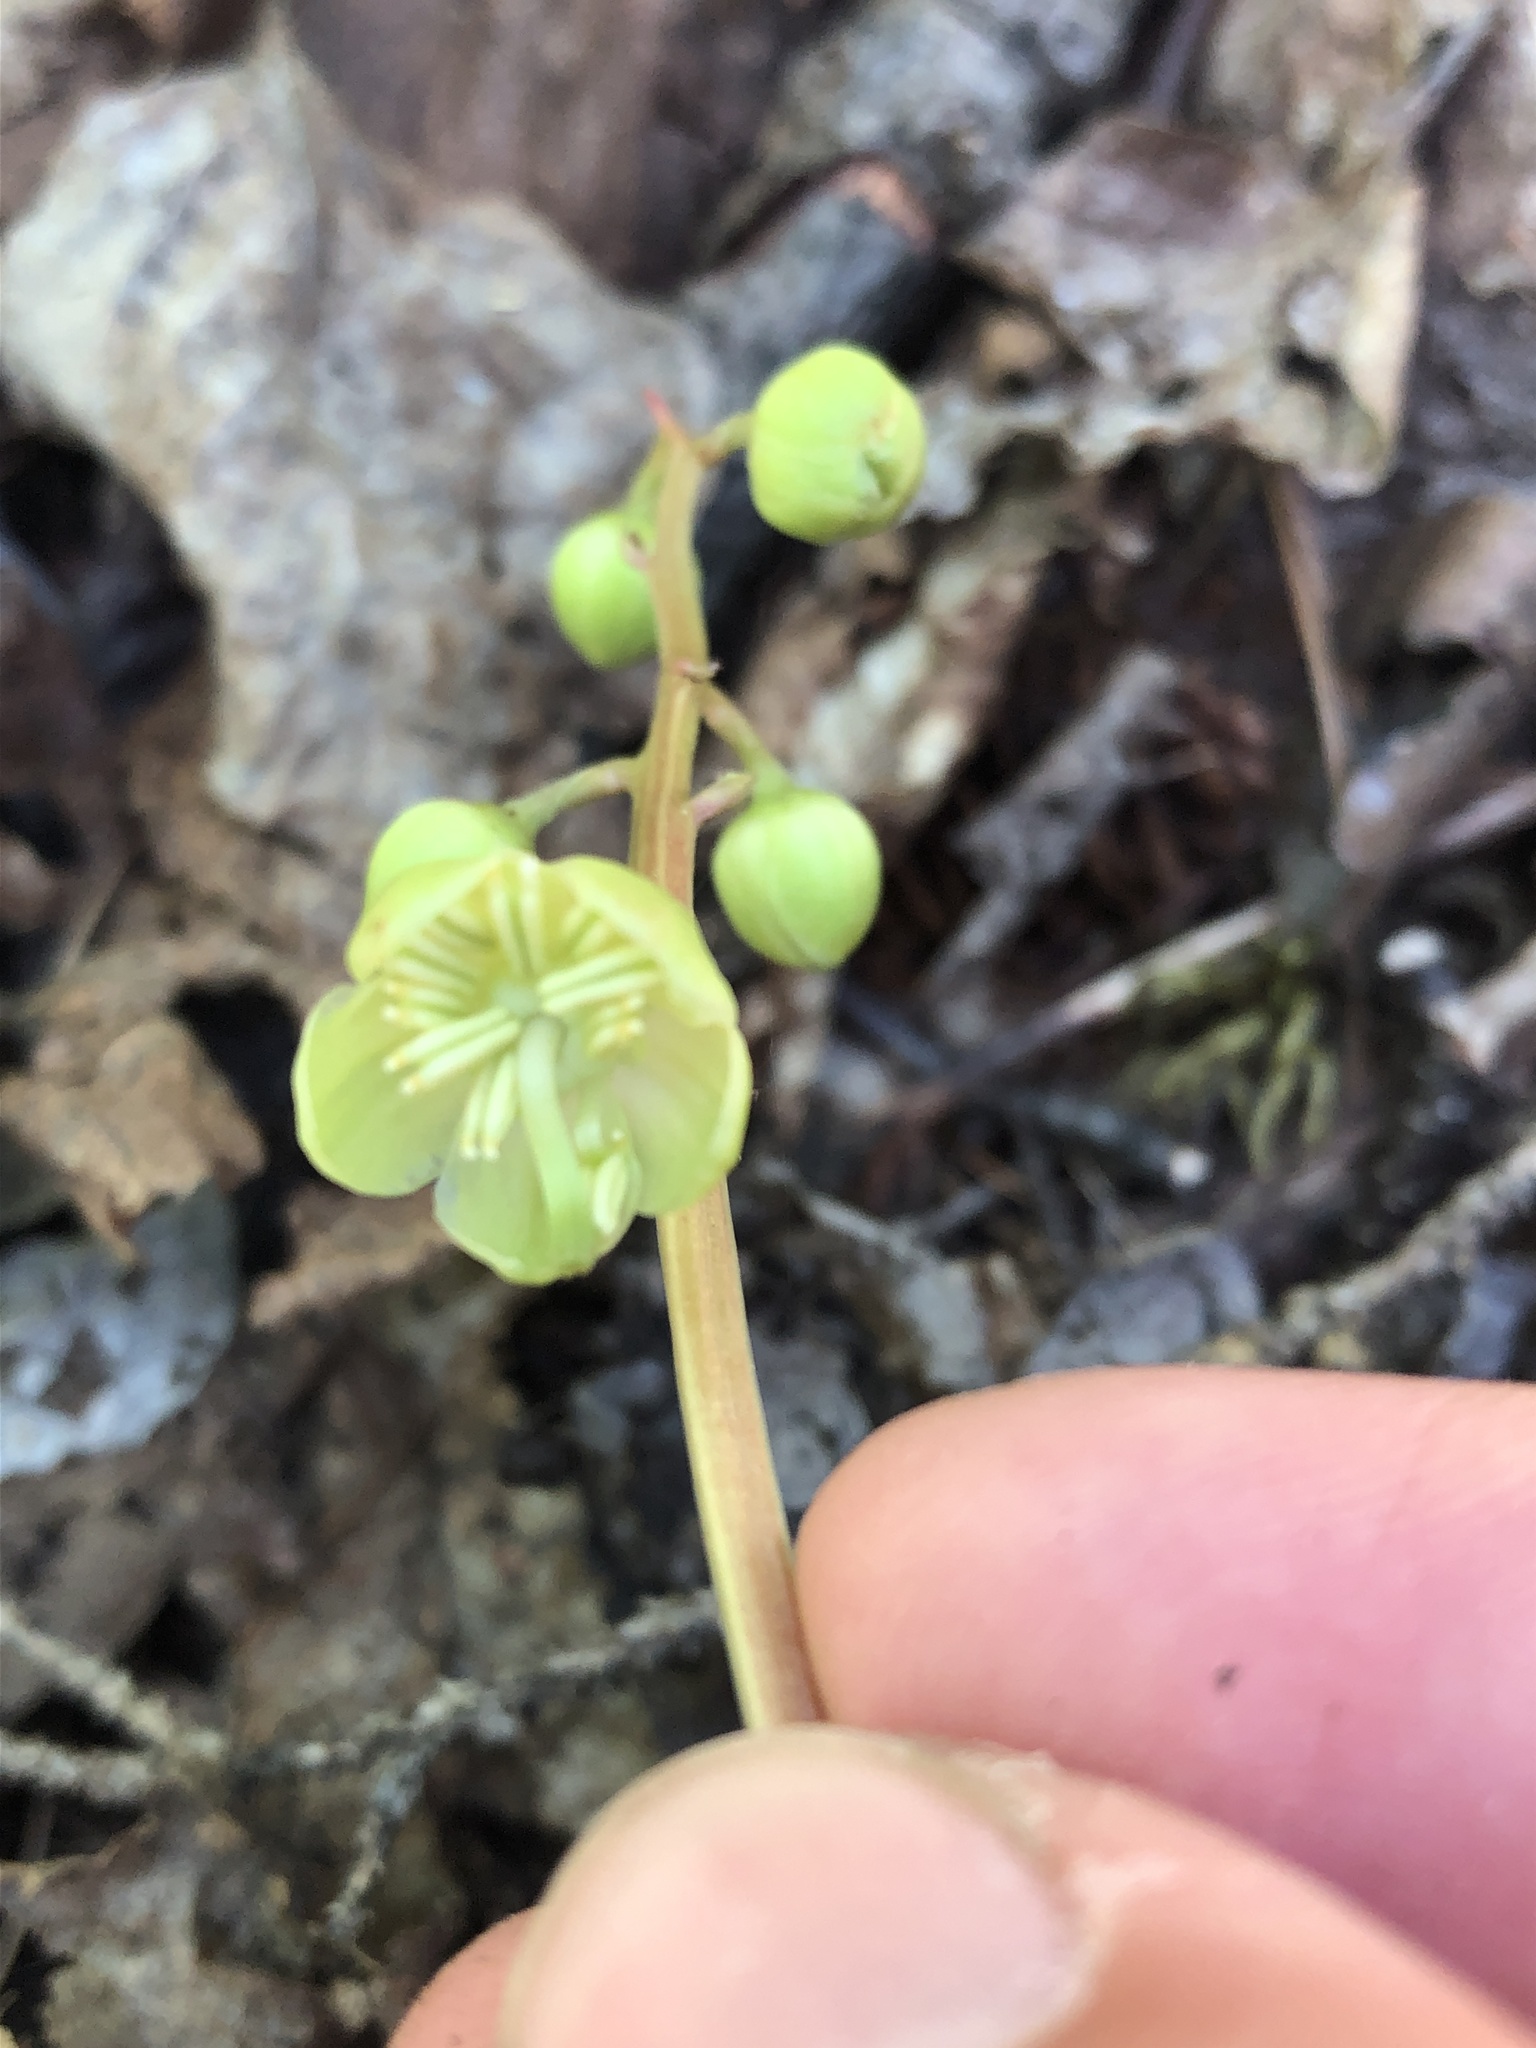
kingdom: Plantae
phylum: Tracheophyta
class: Magnoliopsida
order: Ericales
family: Ericaceae
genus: Pyrola
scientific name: Pyrola chlorantha
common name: Green wintergreen
